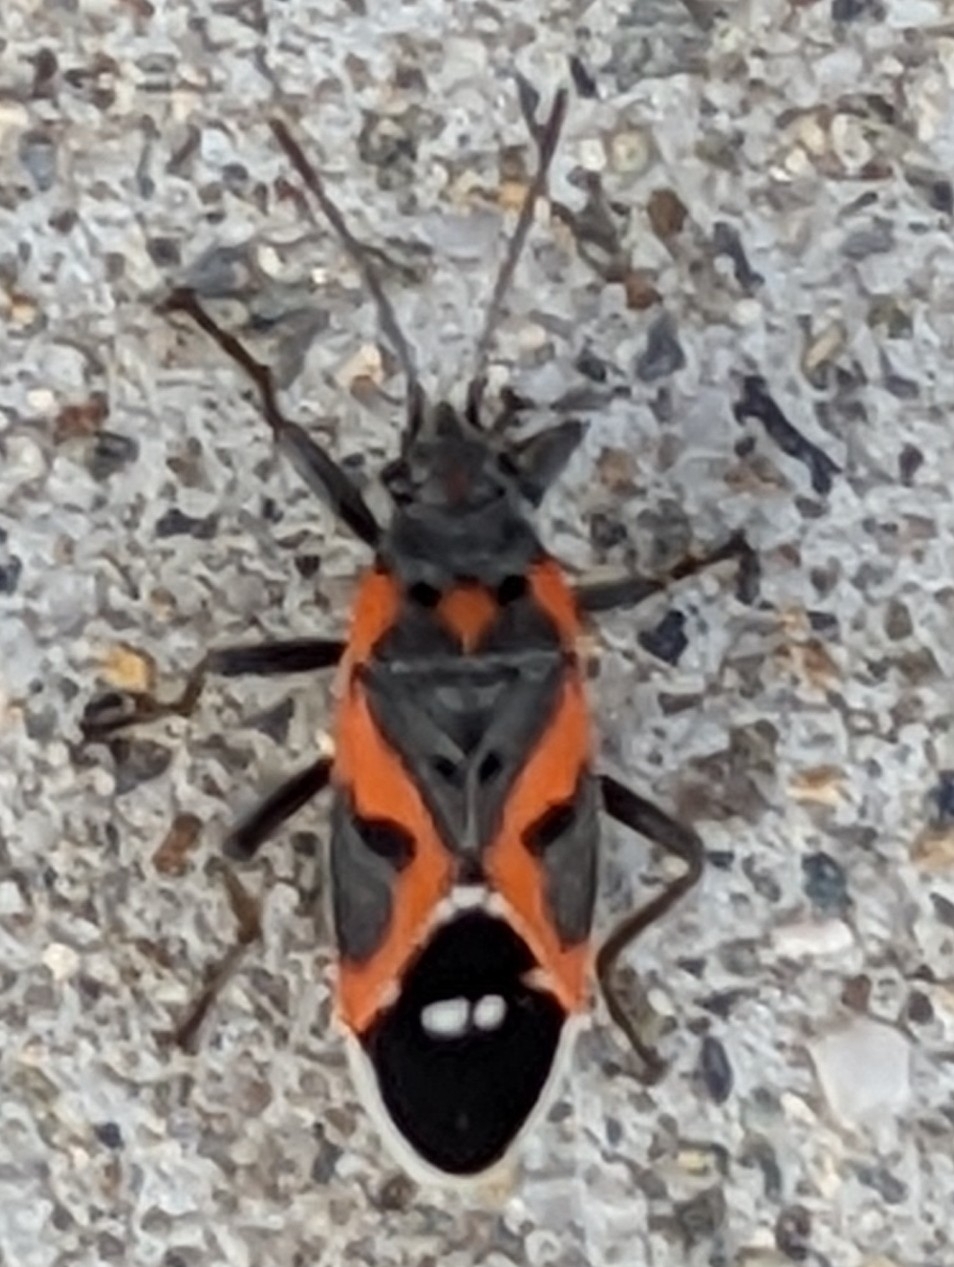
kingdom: Animalia
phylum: Arthropoda
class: Insecta
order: Hemiptera
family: Lygaeidae
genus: Lygaeus
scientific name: Lygaeus kalmii
